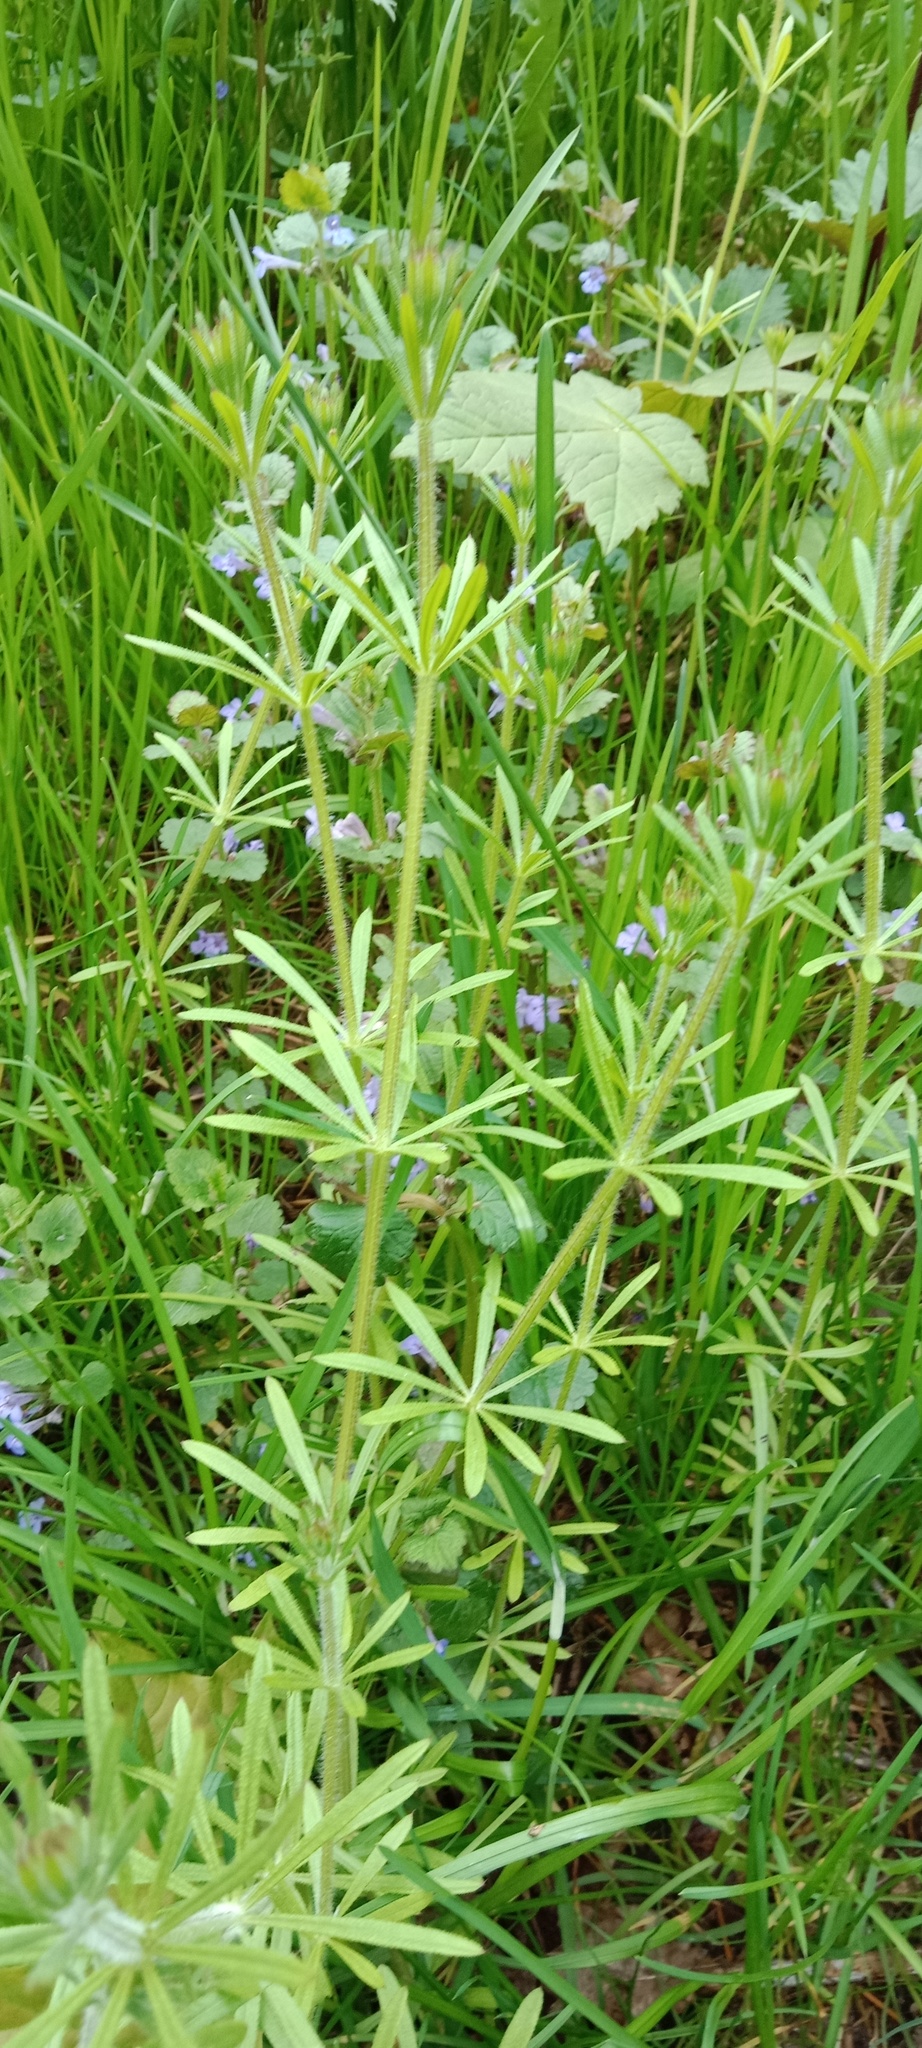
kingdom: Plantae
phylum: Tracheophyta
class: Magnoliopsida
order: Gentianales
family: Rubiaceae
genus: Galium
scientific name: Galium aparine
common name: Cleavers
